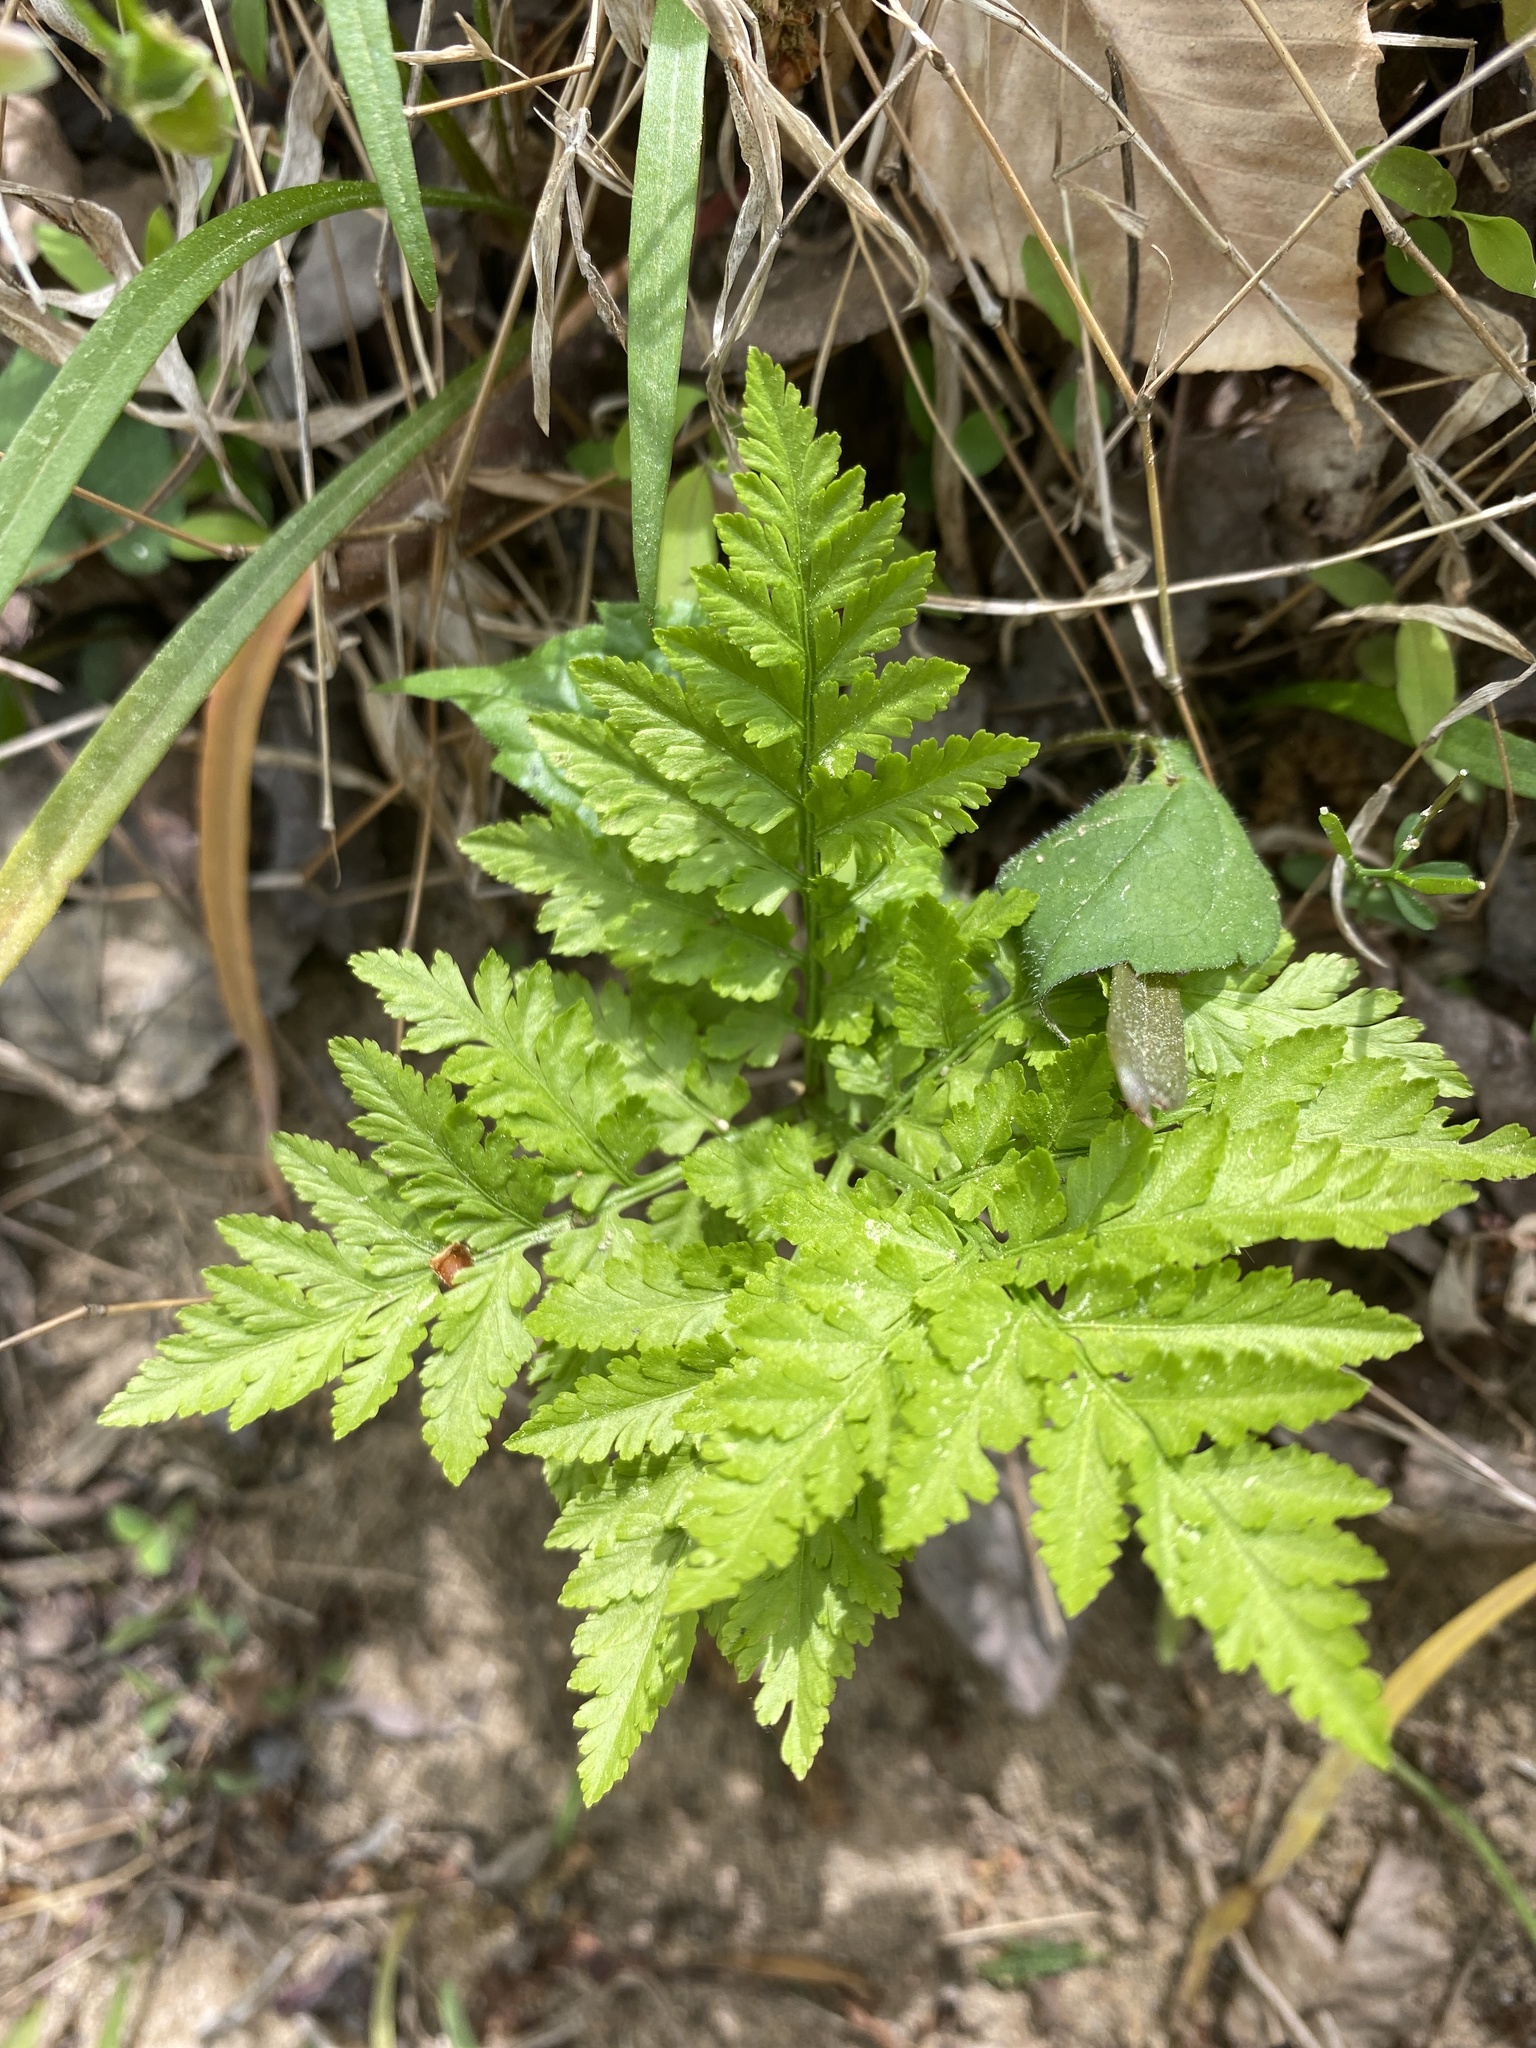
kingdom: Plantae
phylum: Tracheophyta
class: Polypodiopsida
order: Ophioglossales
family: Ophioglossaceae
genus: Botrypus
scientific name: Botrypus virginianus
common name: Common grapefern
